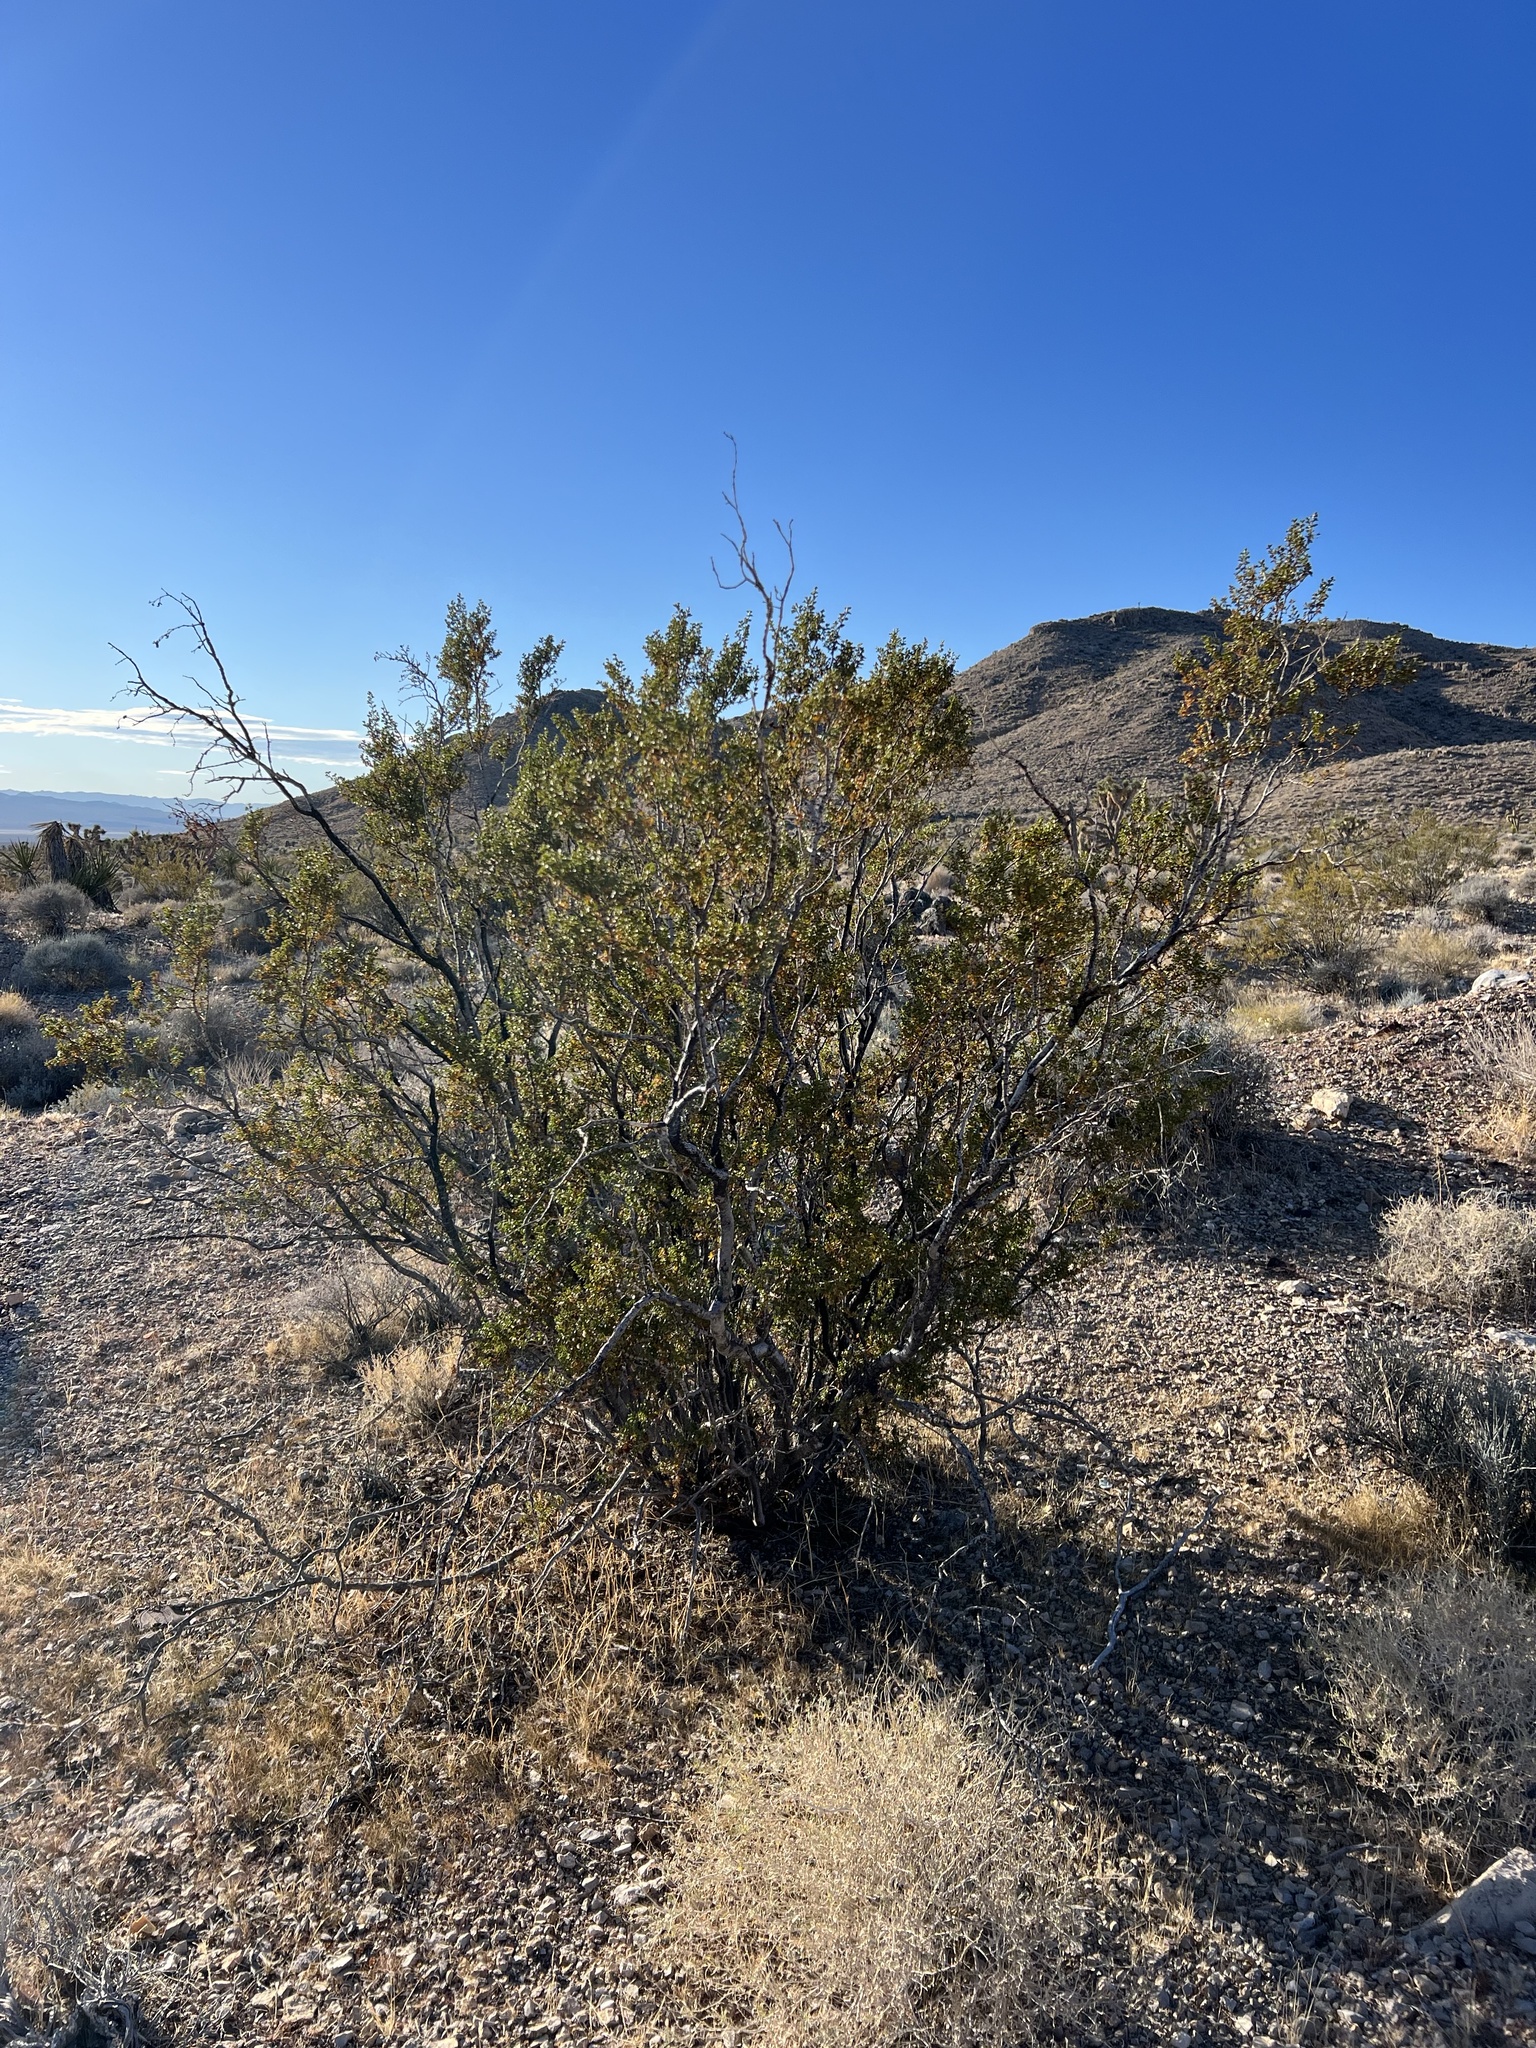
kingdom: Plantae
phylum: Tracheophyta
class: Magnoliopsida
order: Zygophyllales
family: Zygophyllaceae
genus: Larrea
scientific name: Larrea tridentata
